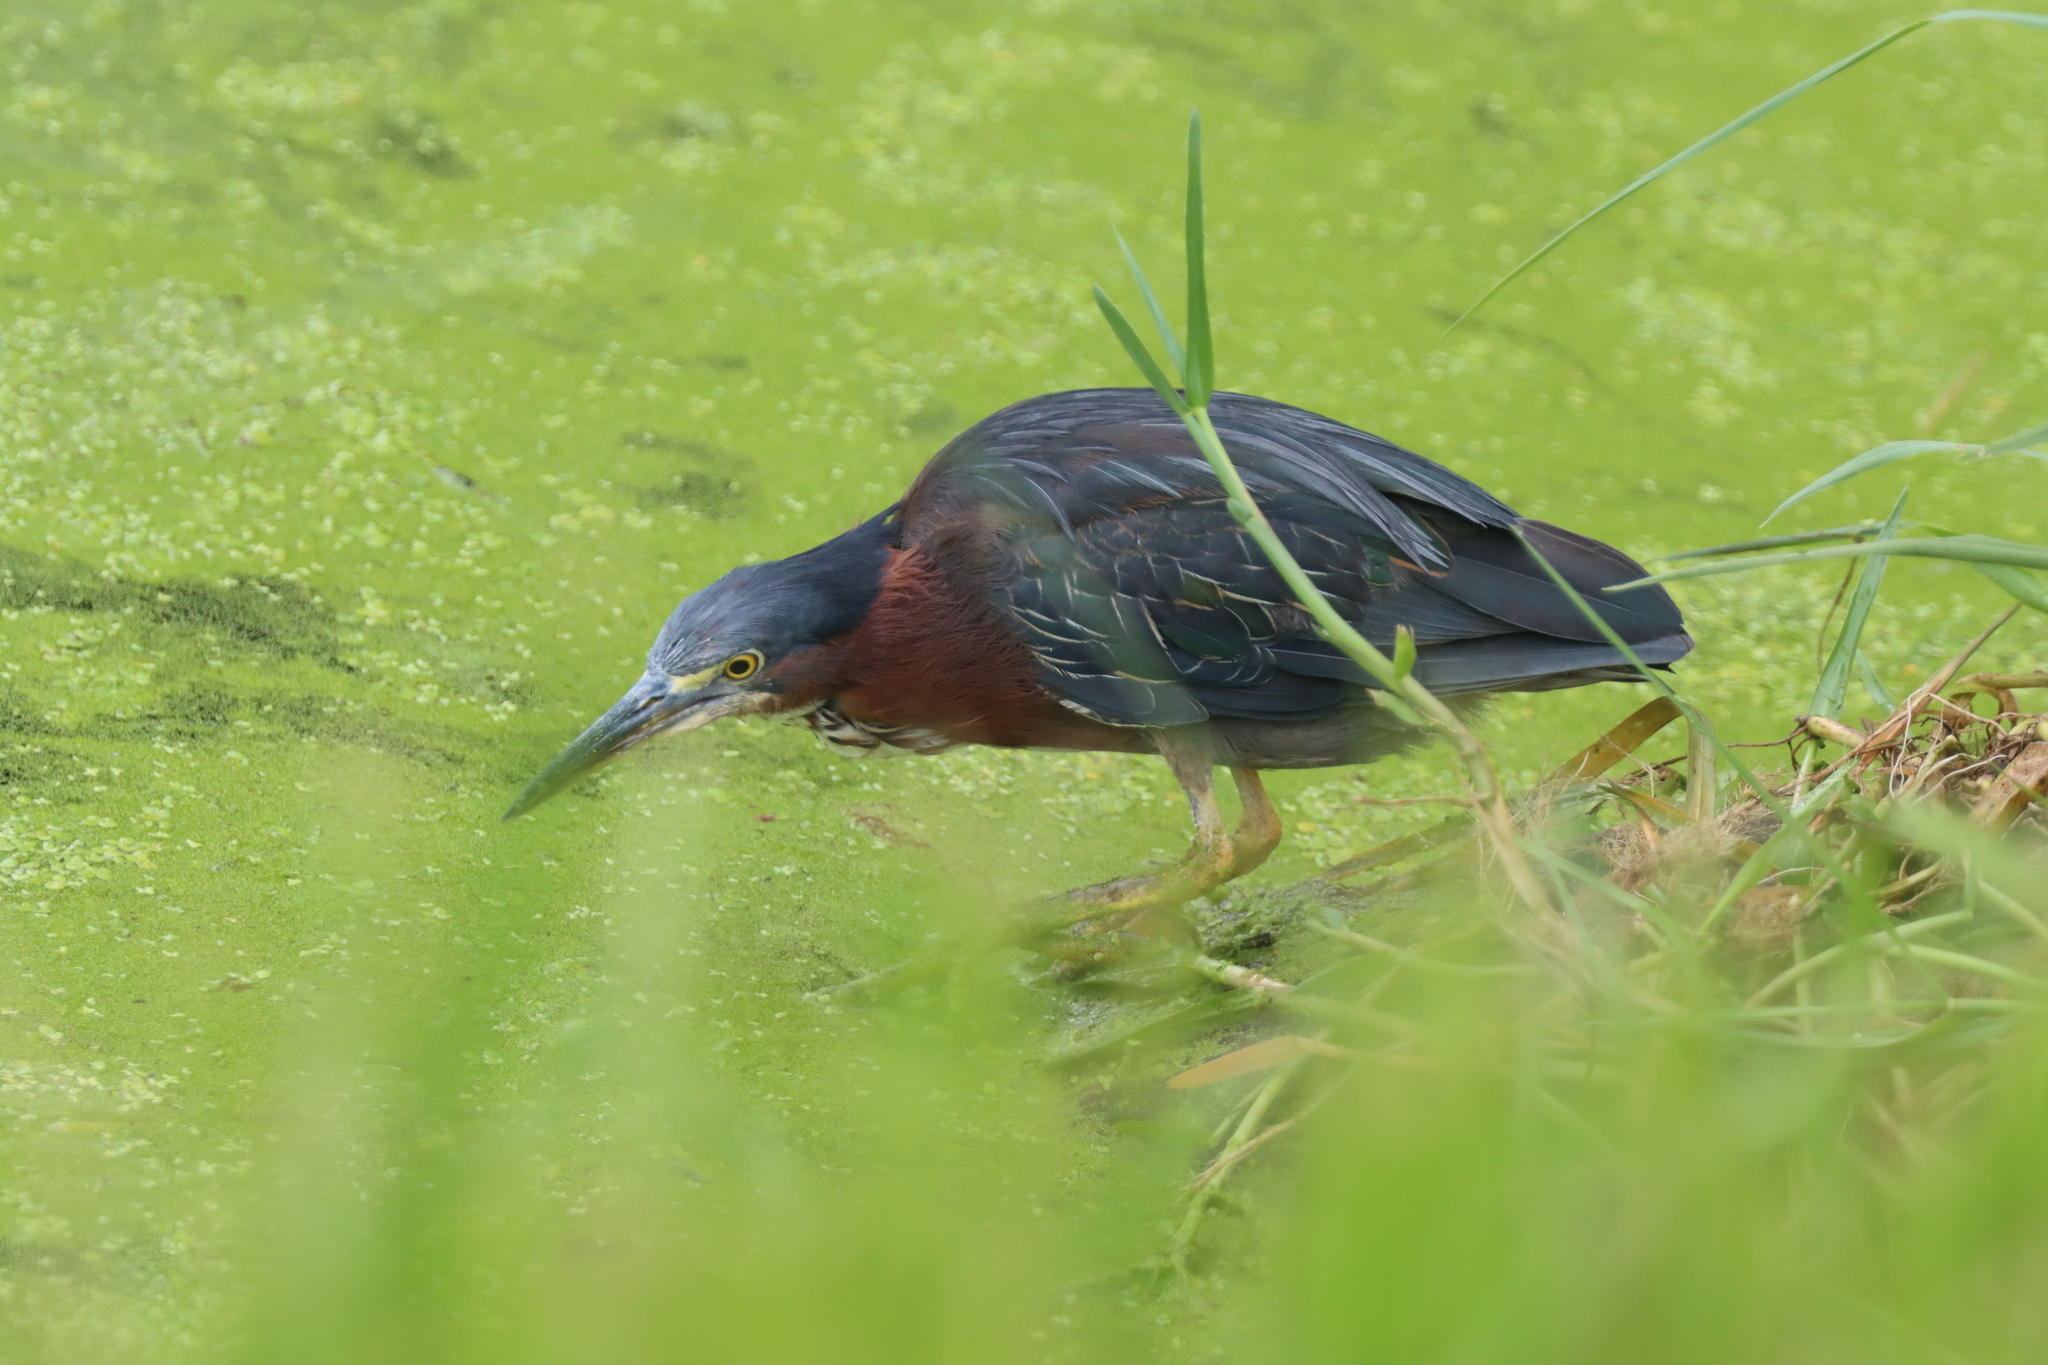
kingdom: Animalia
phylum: Chordata
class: Aves
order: Pelecaniformes
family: Ardeidae
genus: Butorides
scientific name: Butorides virescens
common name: Green heron
